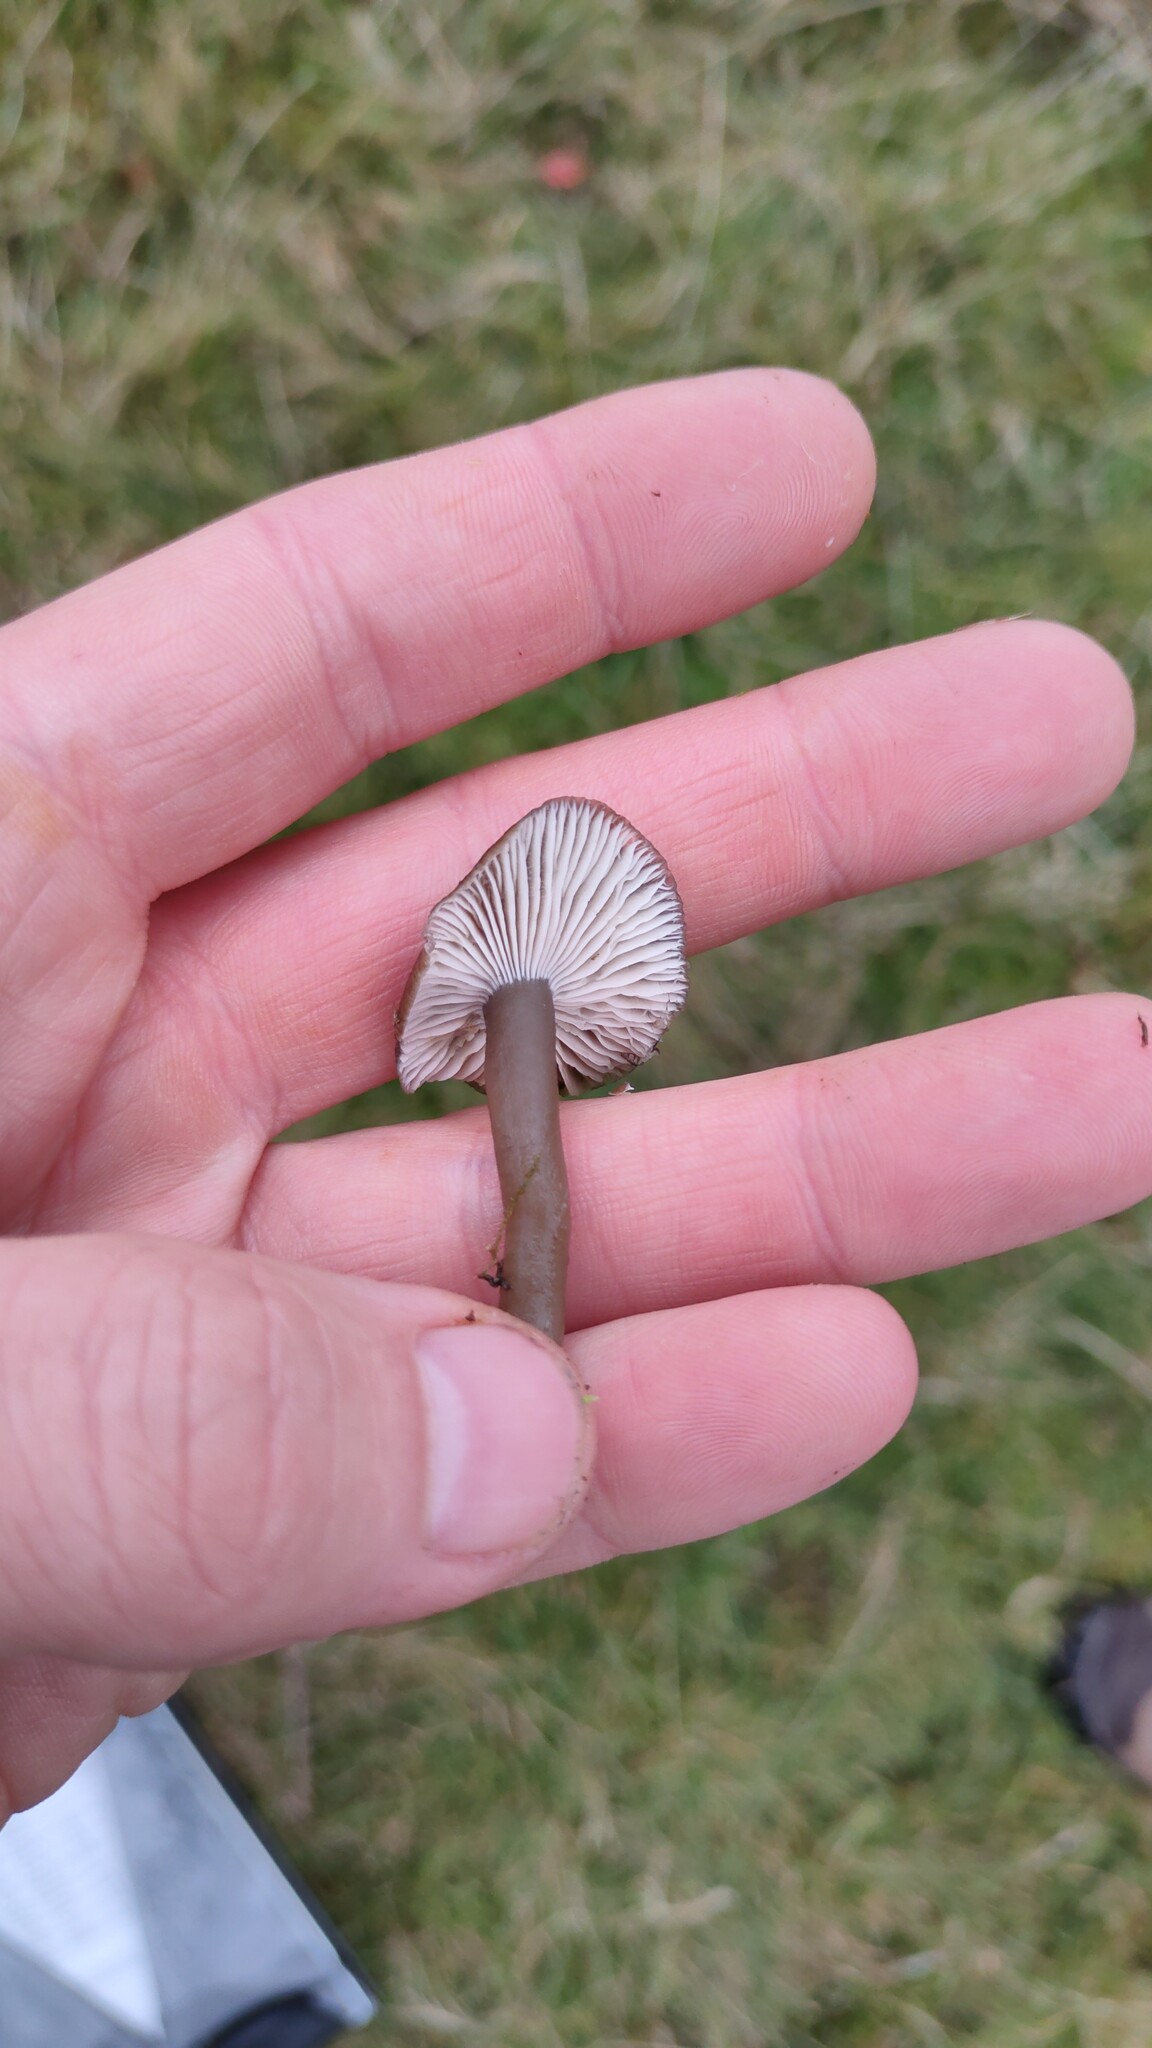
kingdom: Fungi
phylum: Basidiomycota
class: Agaricomycetes
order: Agaricales
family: Clavariaceae
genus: Camarophyllopsis
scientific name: Camarophyllopsis atrovelutina
